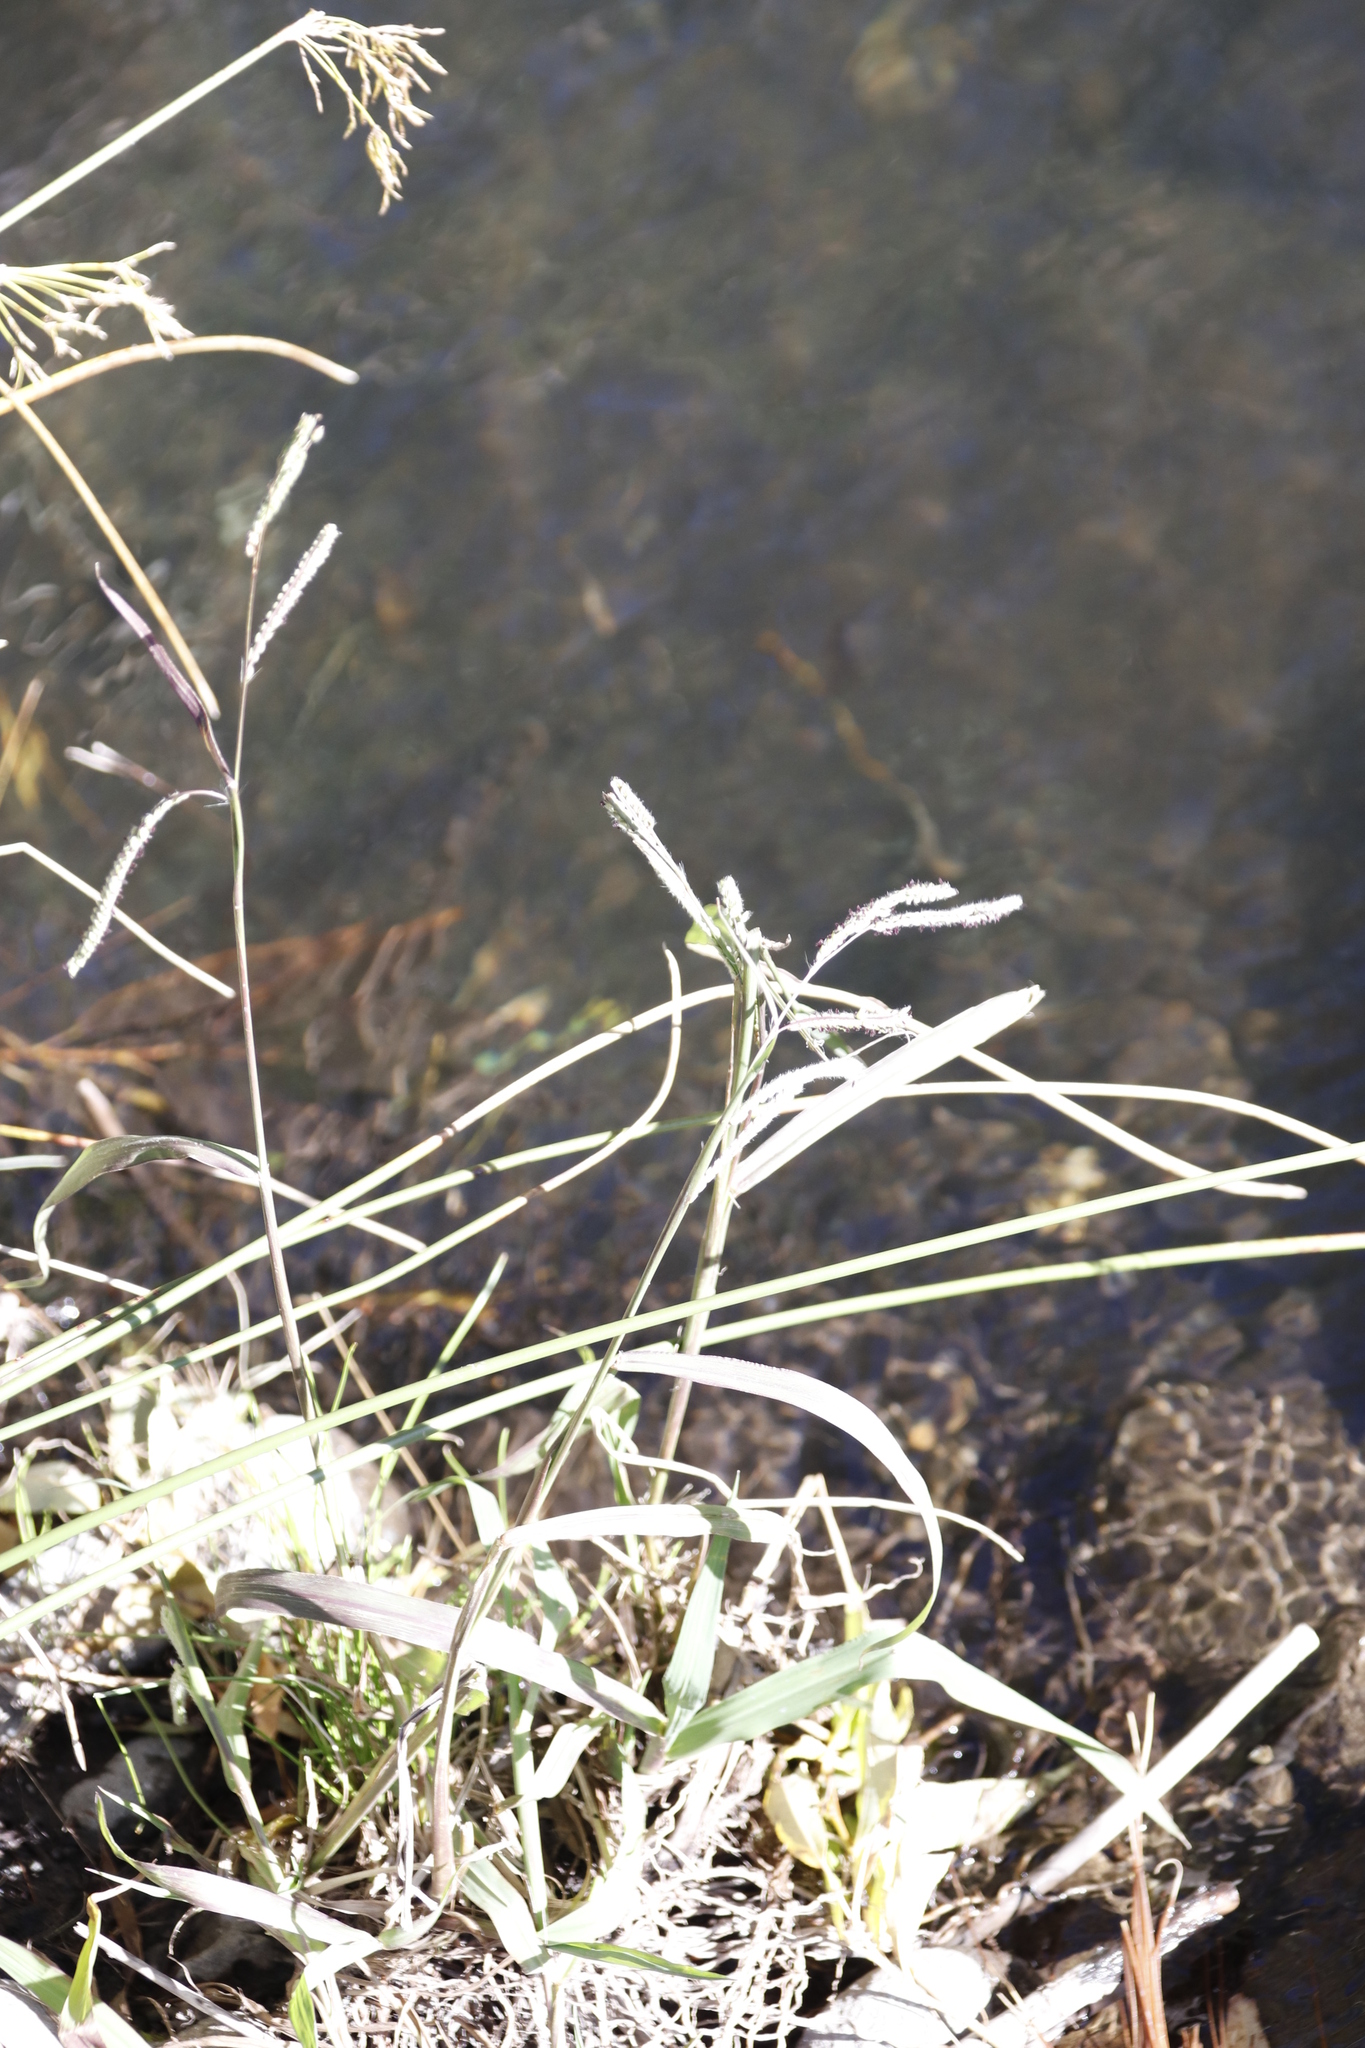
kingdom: Plantae
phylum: Tracheophyta
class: Liliopsida
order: Poales
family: Poaceae
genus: Paspalum
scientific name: Paspalum dilatatum
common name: Dallisgrass
